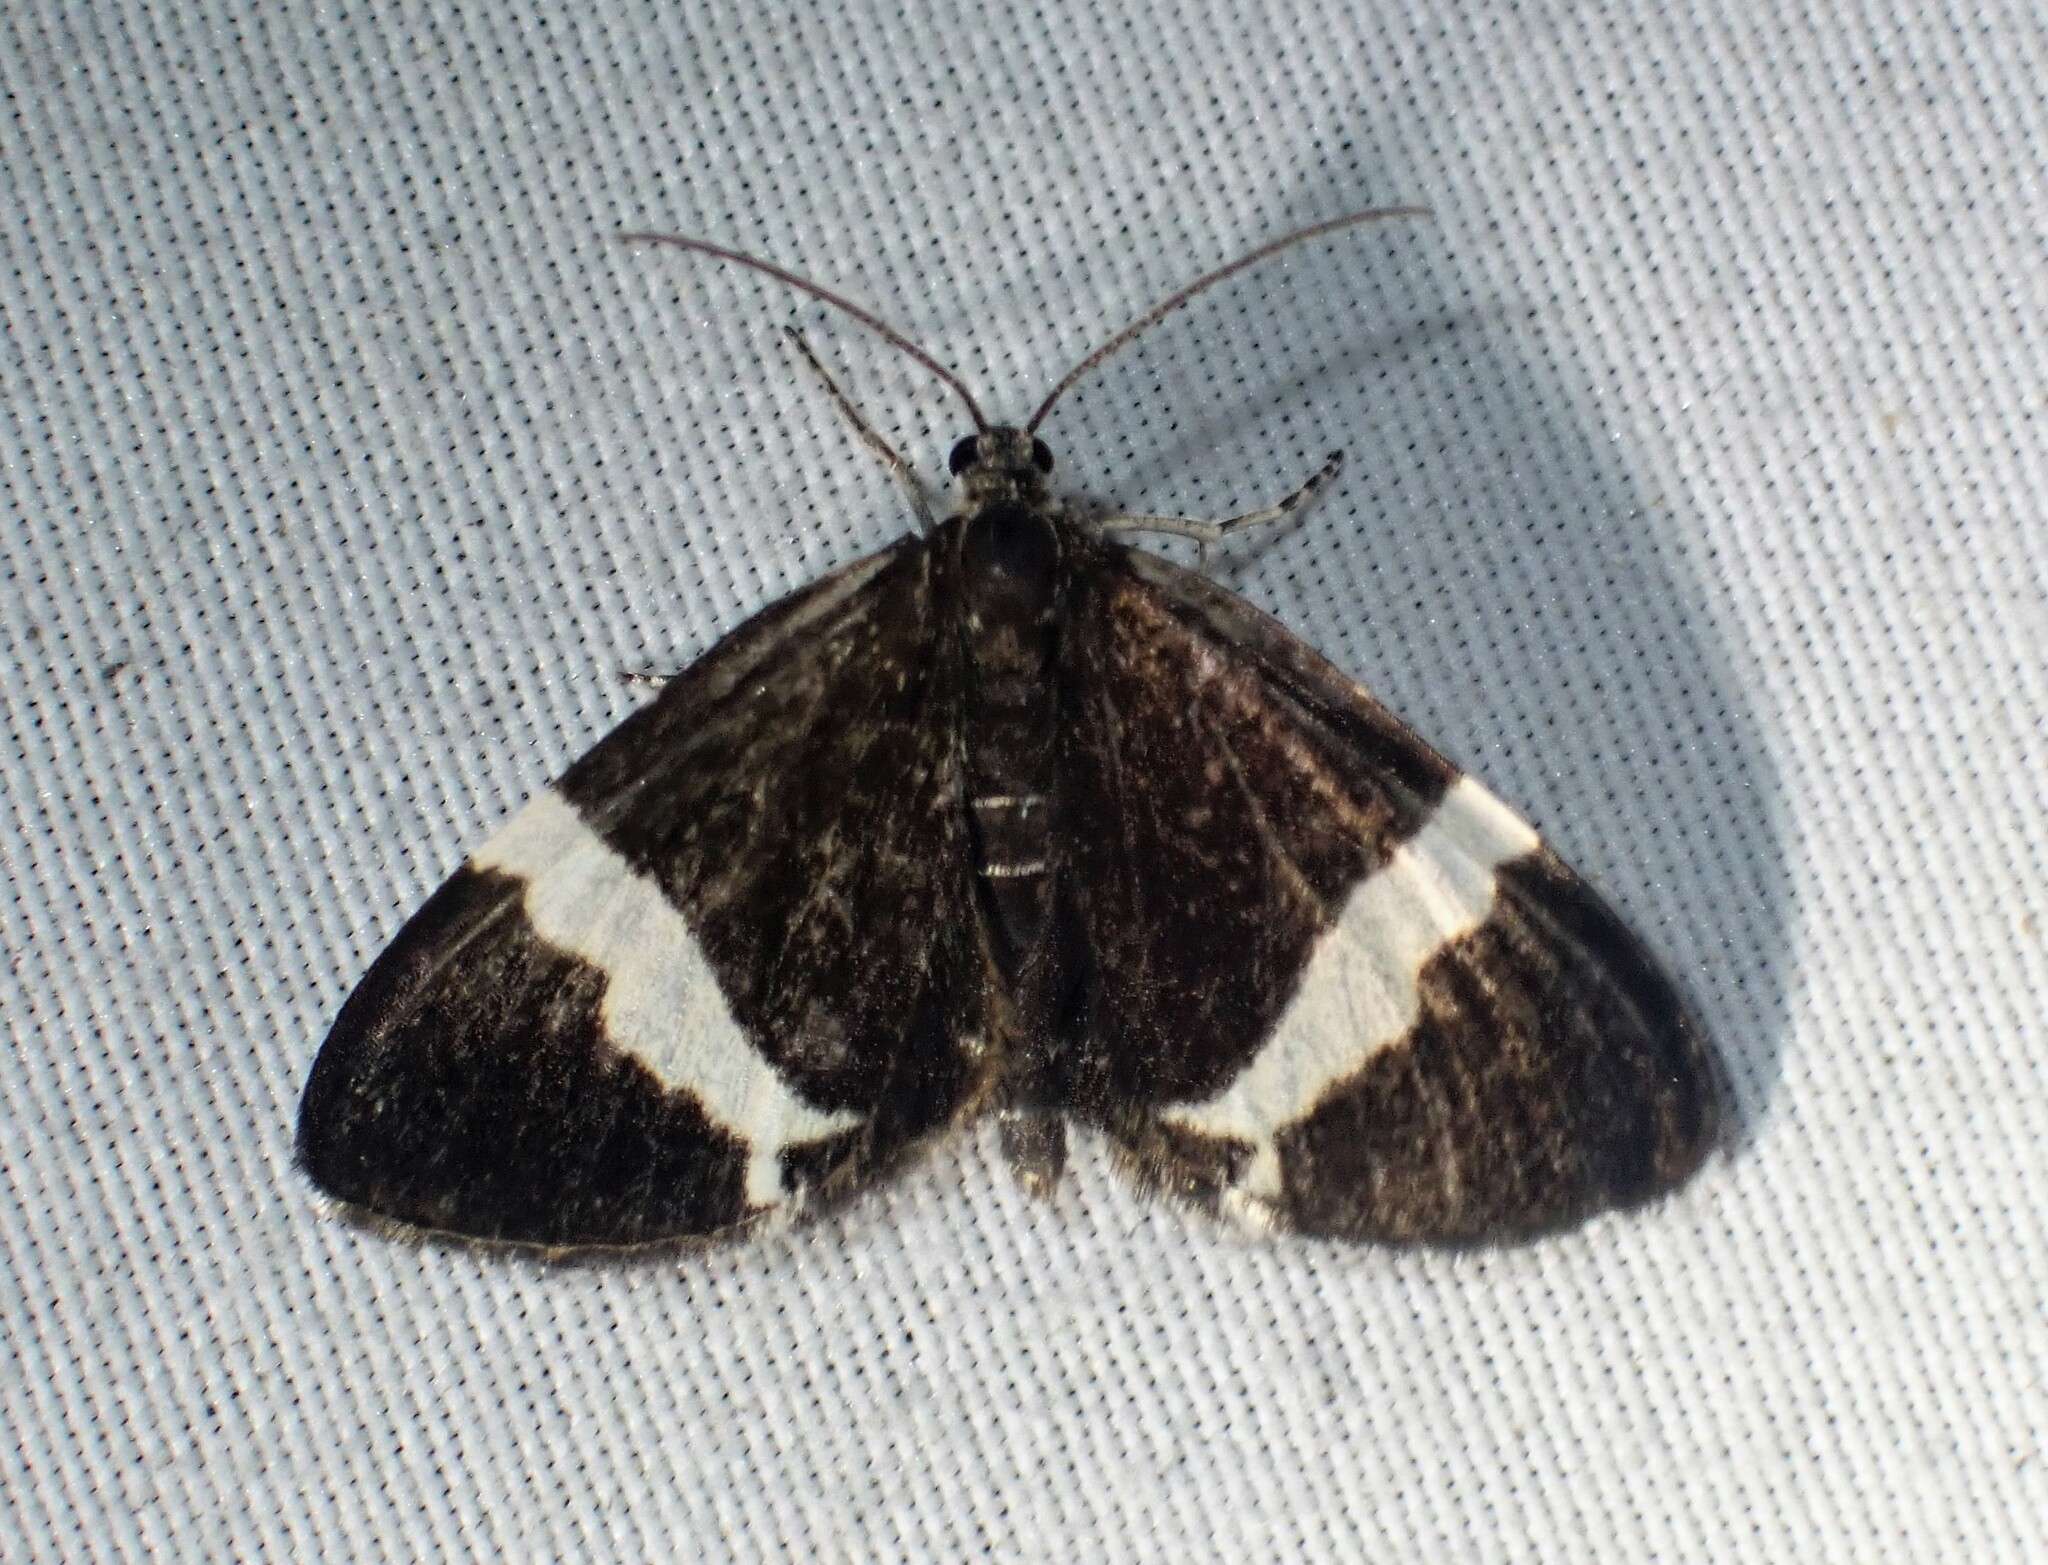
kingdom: Animalia
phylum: Arthropoda
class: Insecta
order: Lepidoptera
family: Geometridae
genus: Trichodezia
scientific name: Trichodezia albovittata
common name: White striped black
